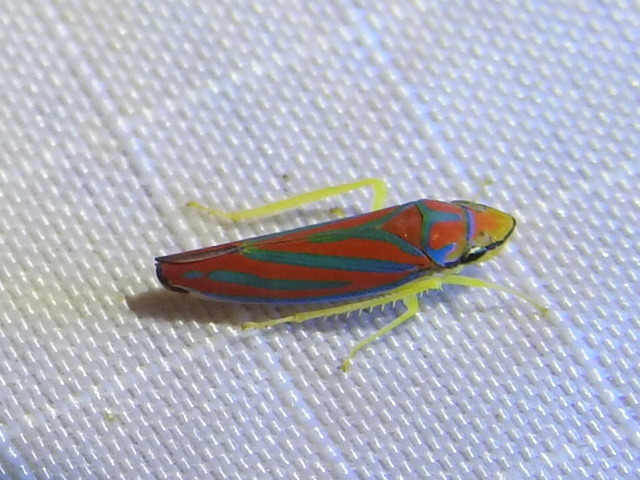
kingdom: Animalia
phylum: Arthropoda
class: Insecta
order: Hemiptera
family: Cicadellidae
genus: Graphocephala
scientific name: Graphocephala coccinea
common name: Candy-striped leafhopper
